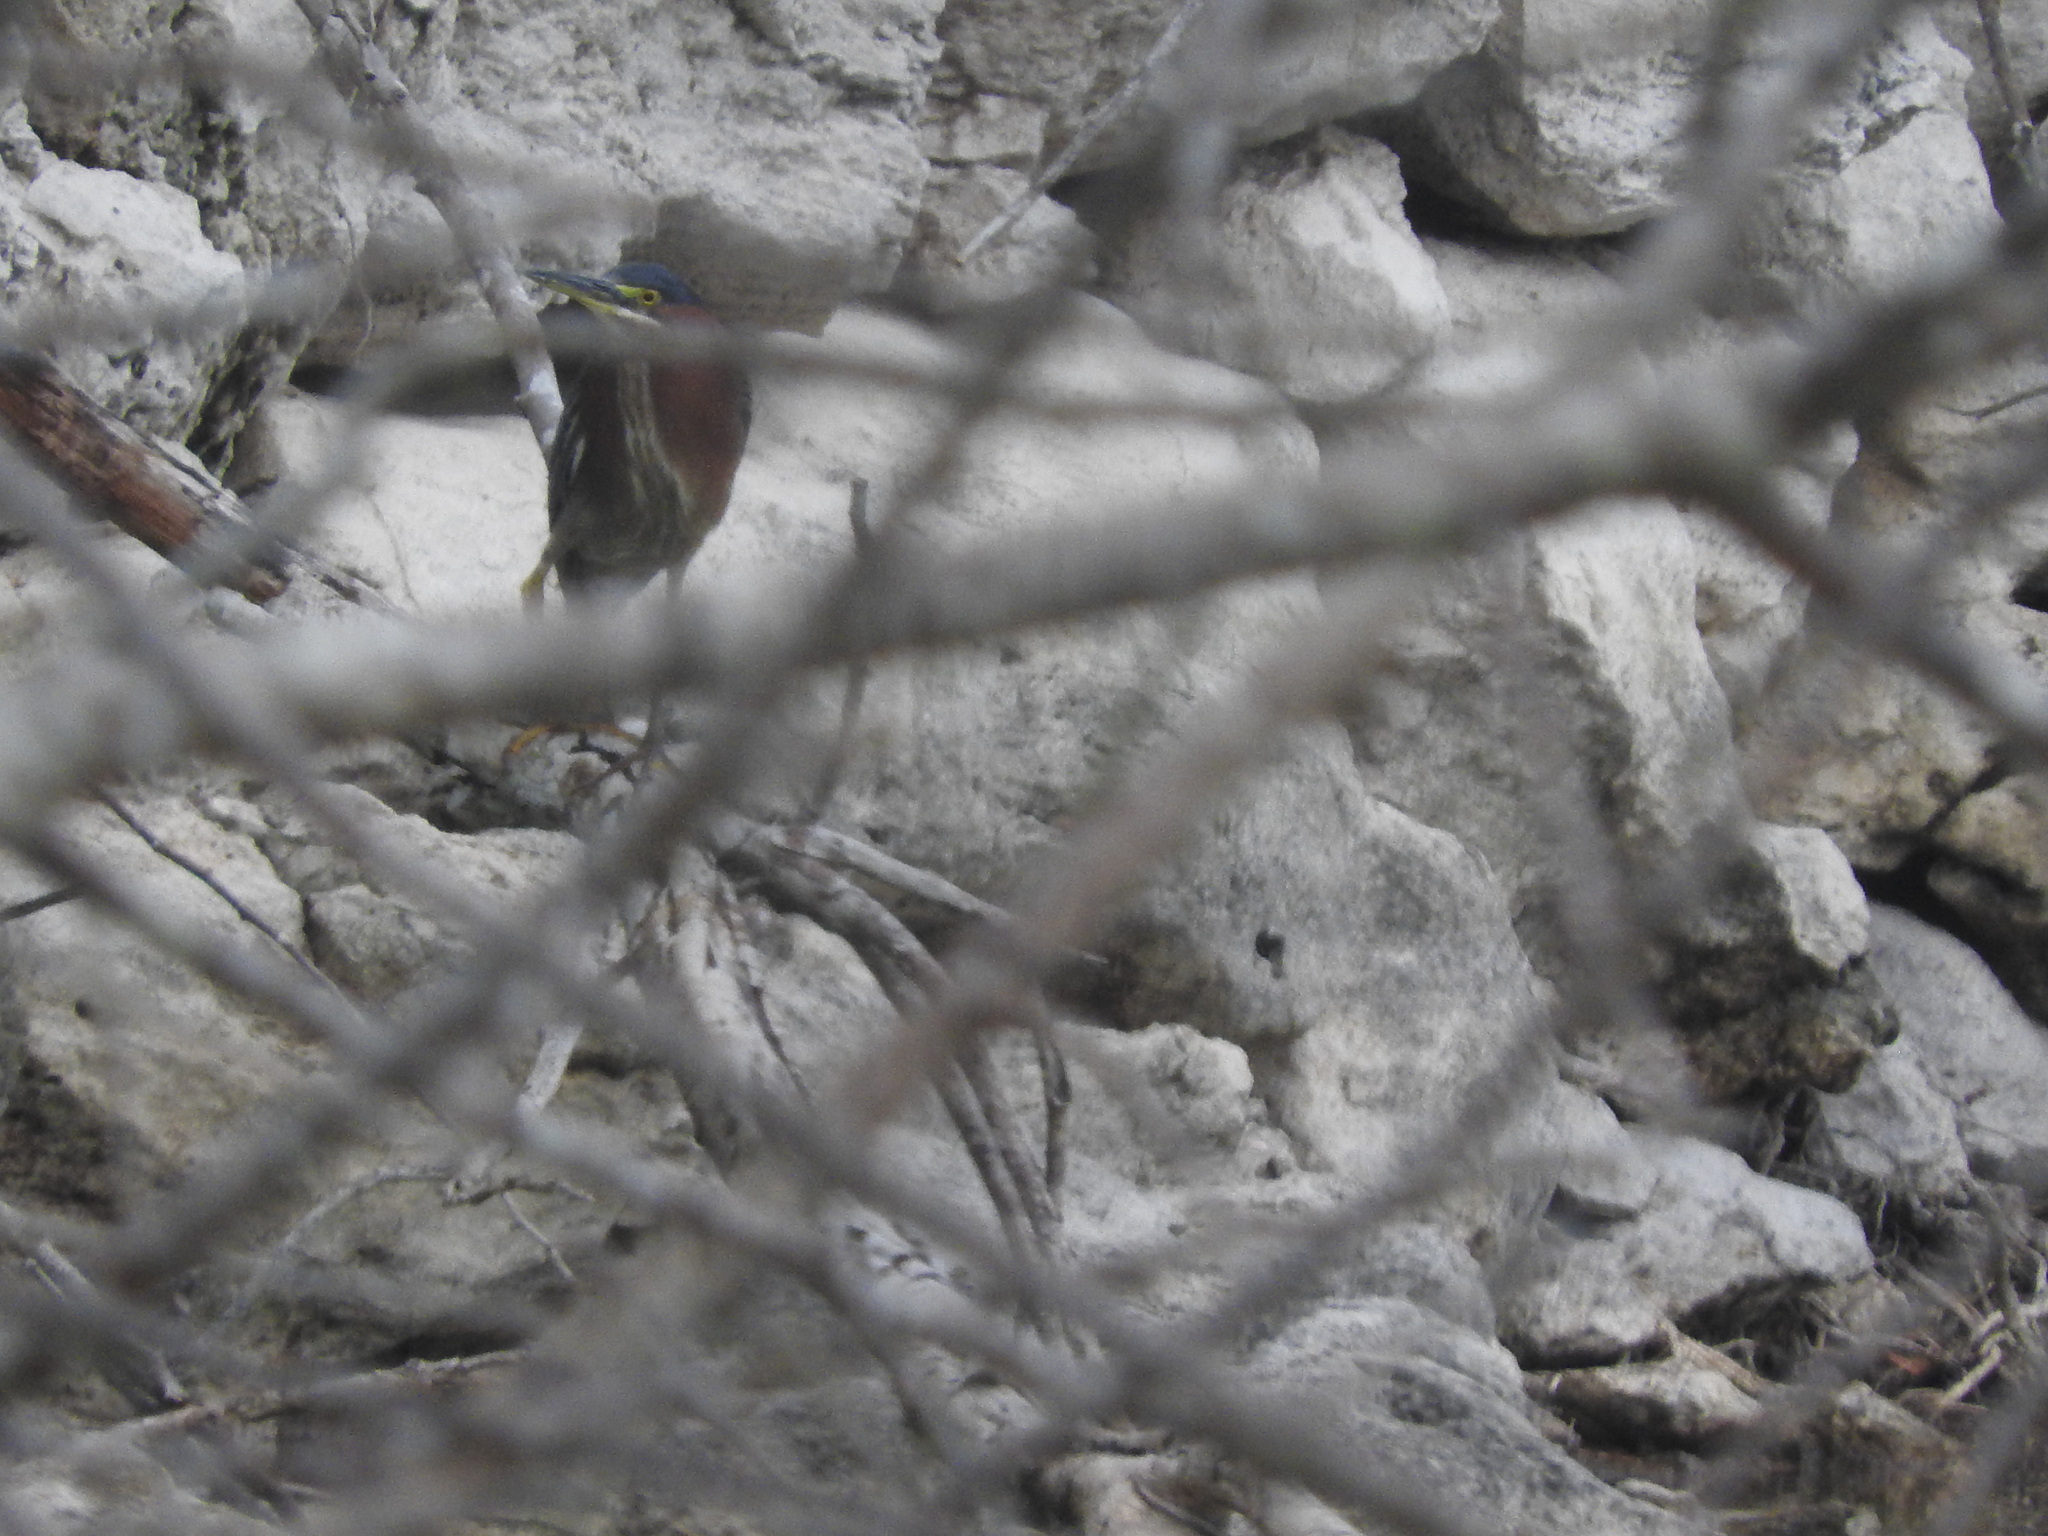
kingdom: Animalia
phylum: Chordata
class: Aves
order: Pelecaniformes
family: Ardeidae
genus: Butorides
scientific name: Butorides virescens
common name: Green heron
